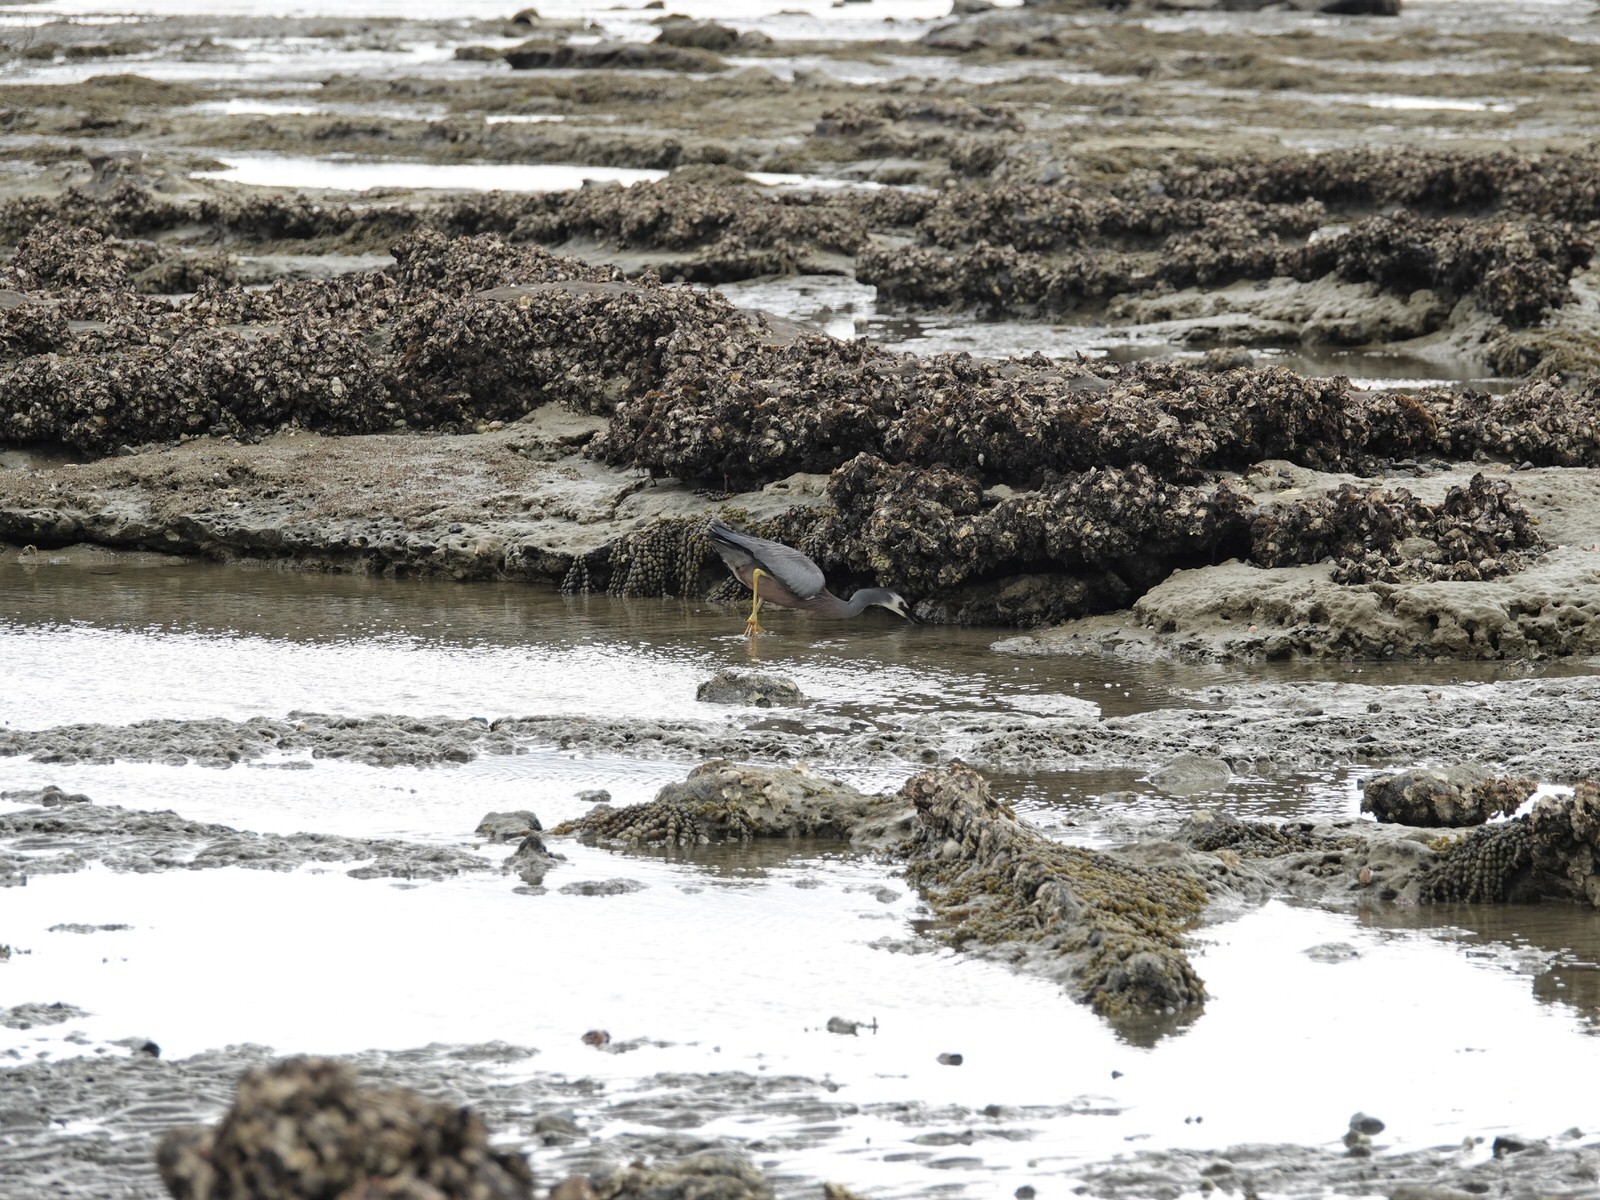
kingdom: Animalia
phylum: Chordata
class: Aves
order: Pelecaniformes
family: Ardeidae
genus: Egretta
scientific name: Egretta novaehollandiae
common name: White-faced heron
